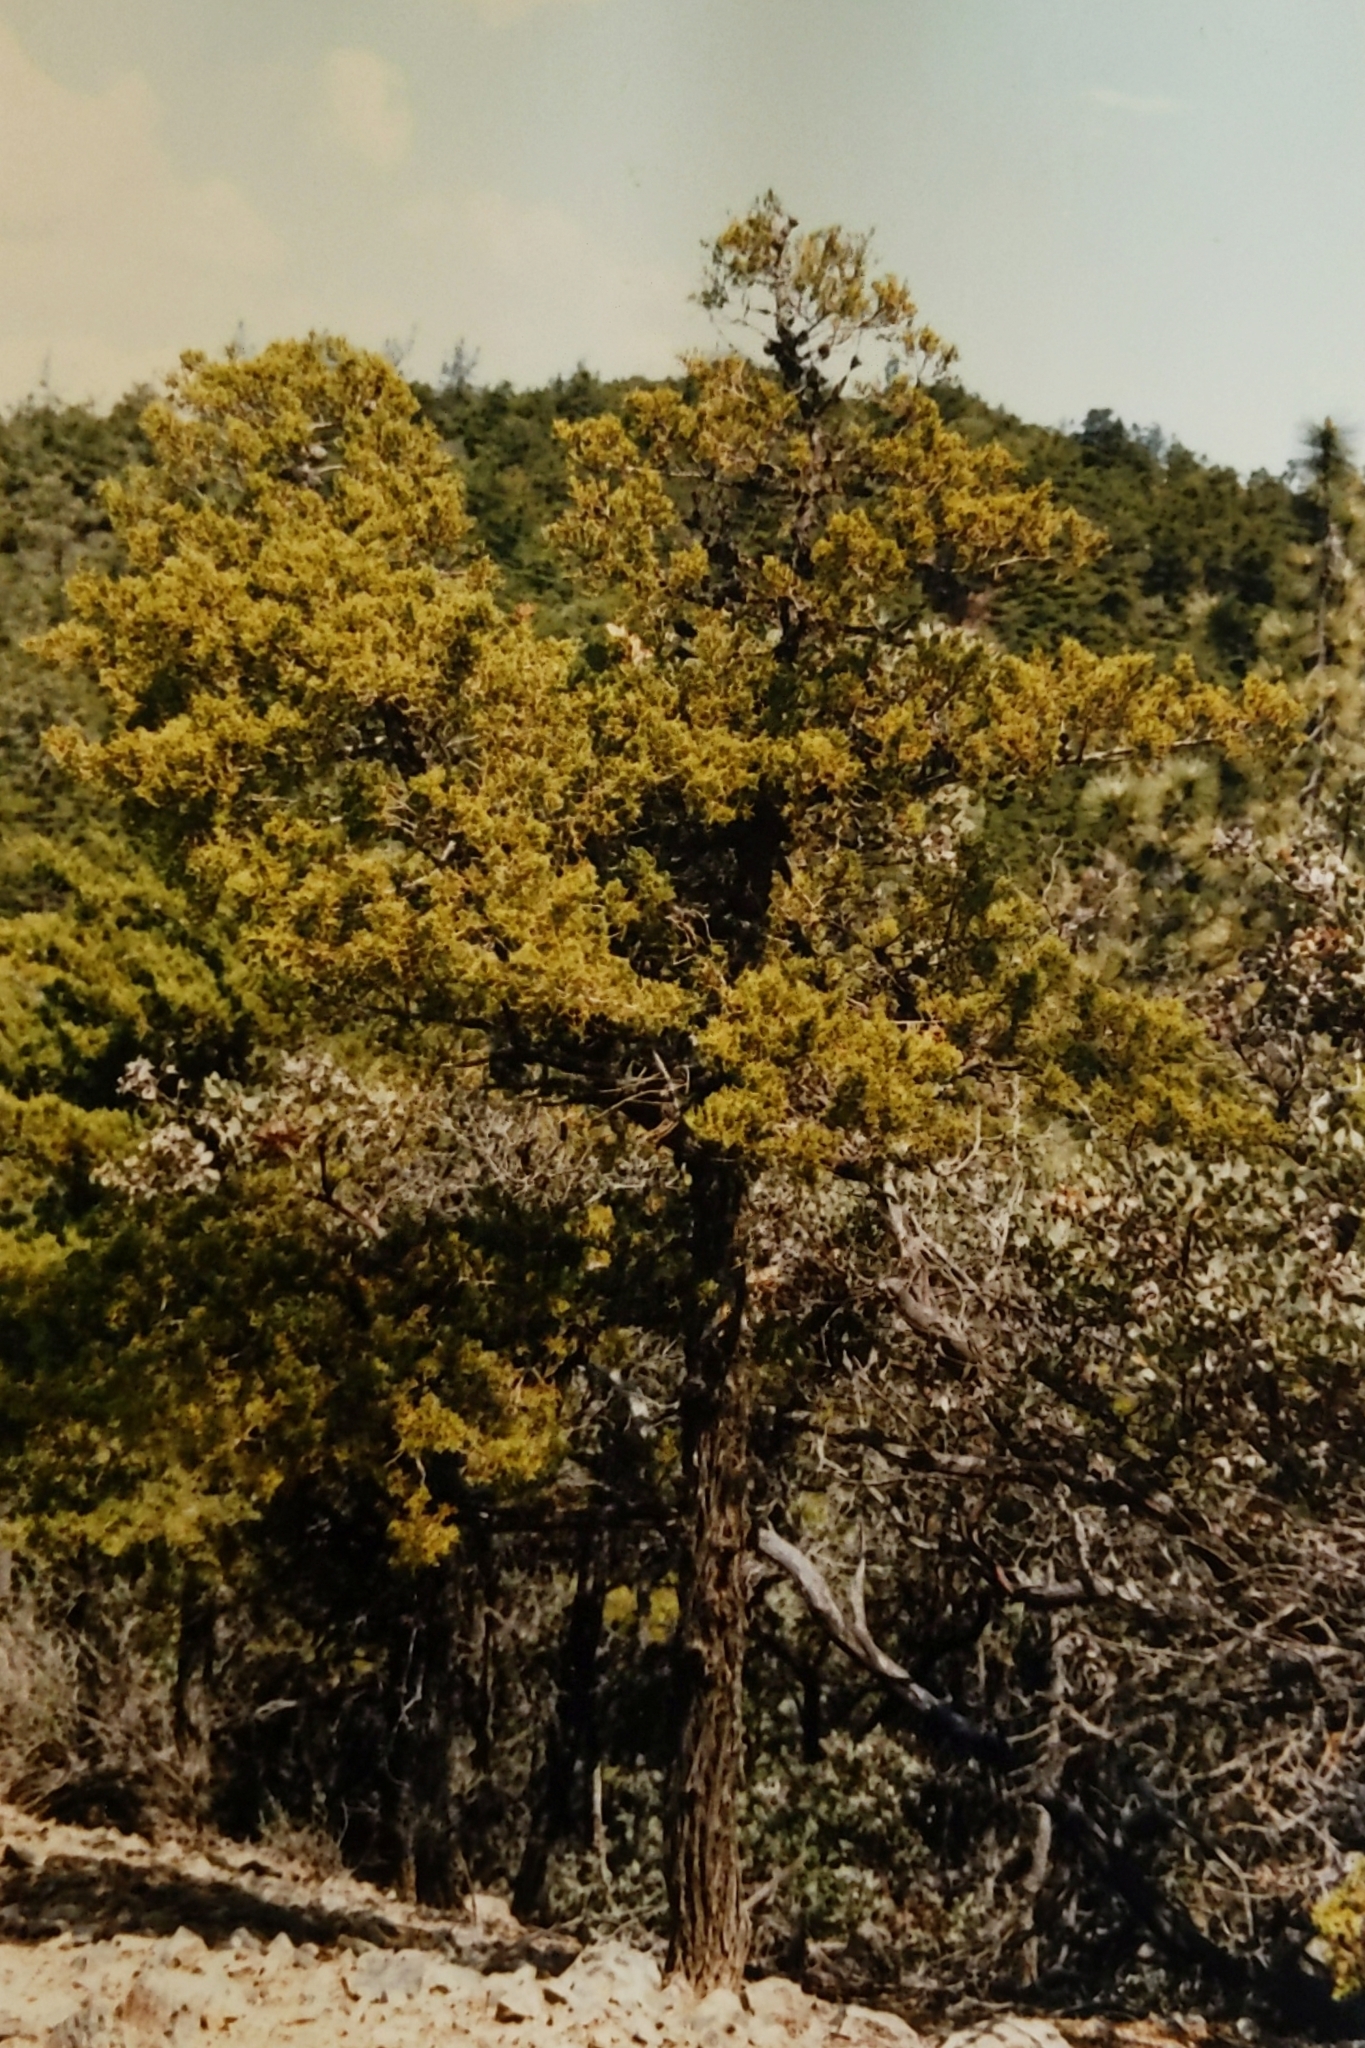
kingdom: Plantae
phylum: Tracheophyta
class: Pinopsida
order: Pinales
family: Cupressaceae
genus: Cupressus
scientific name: Cupressus sargentii
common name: Sargent cypress
